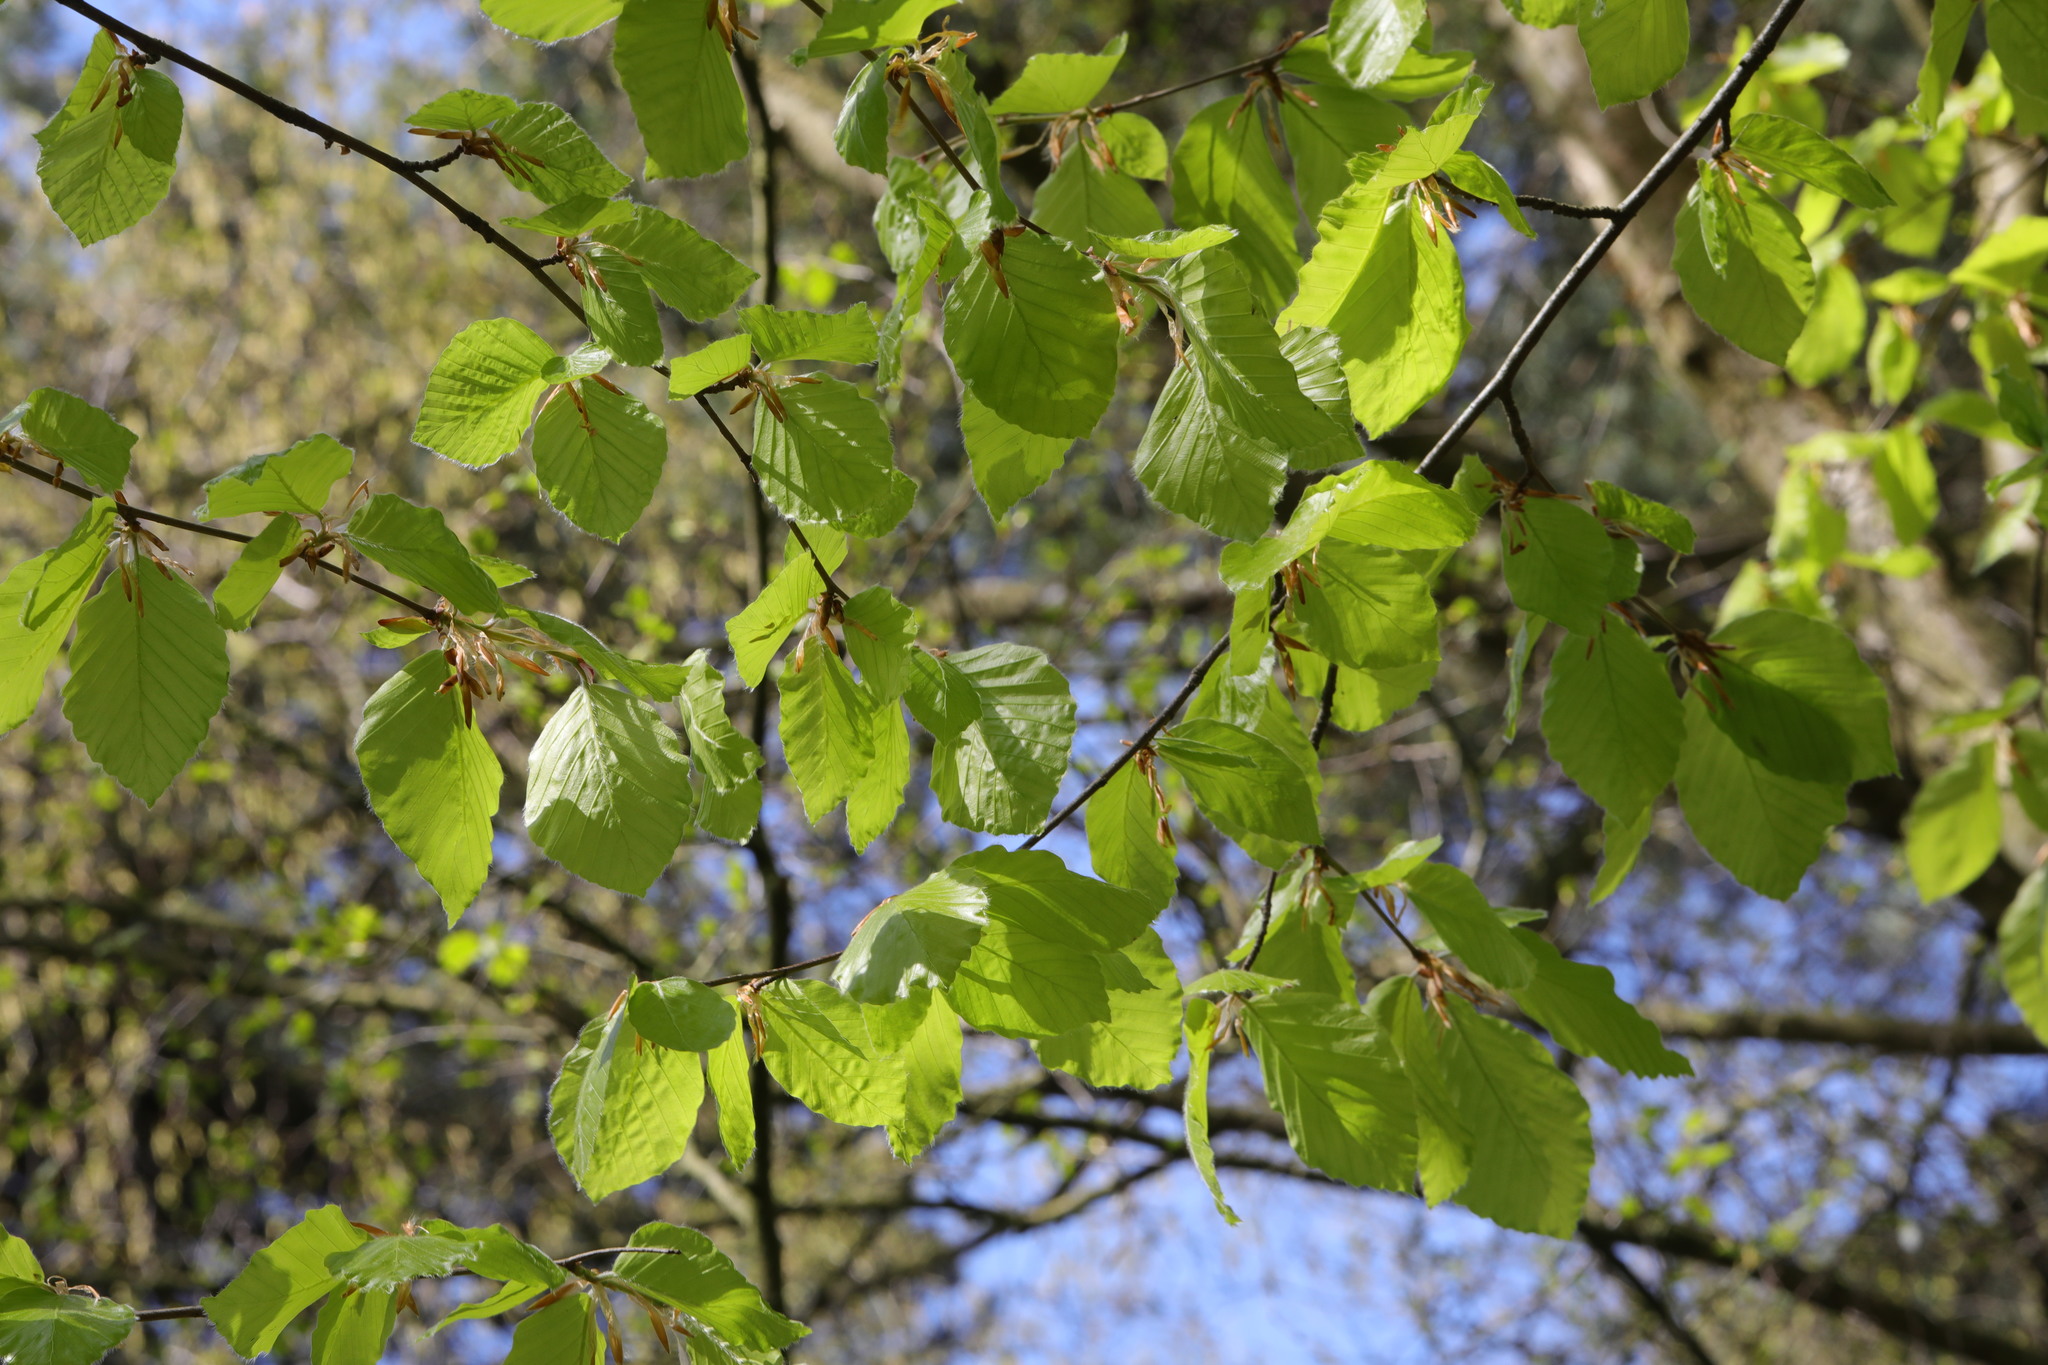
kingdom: Plantae
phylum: Tracheophyta
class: Magnoliopsida
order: Fagales
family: Fagaceae
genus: Fagus
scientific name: Fagus sylvatica
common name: Beech
